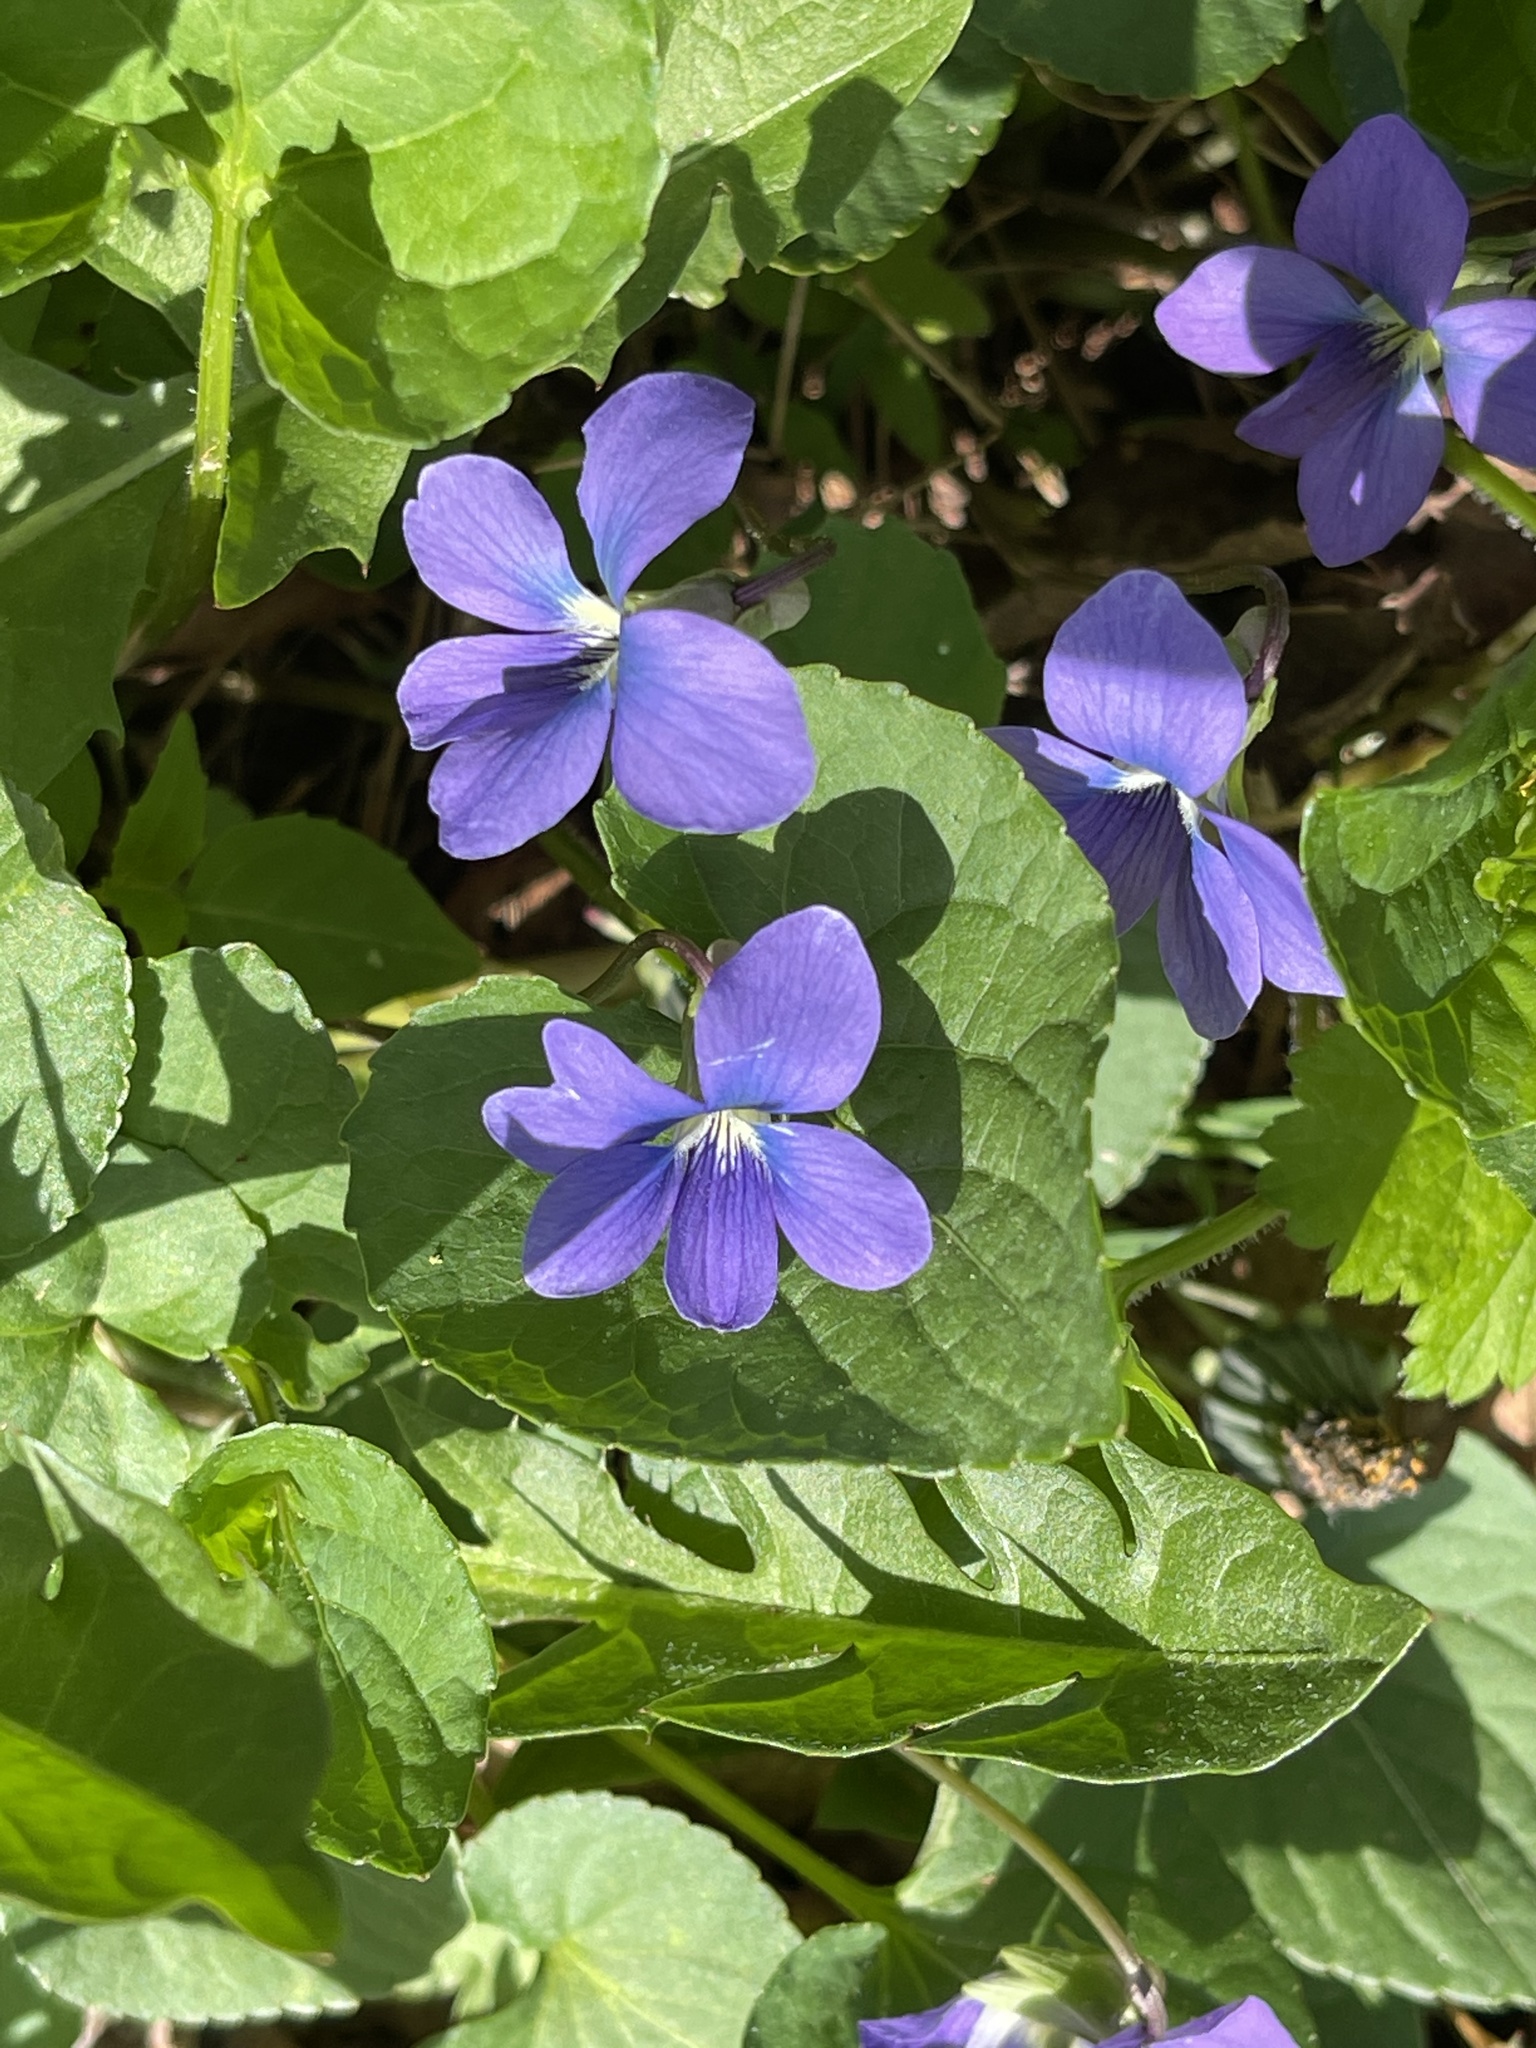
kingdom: Plantae
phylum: Tracheophyta
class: Magnoliopsida
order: Malpighiales
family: Violaceae
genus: Viola
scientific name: Viola cucullata
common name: Marsh blue violet
